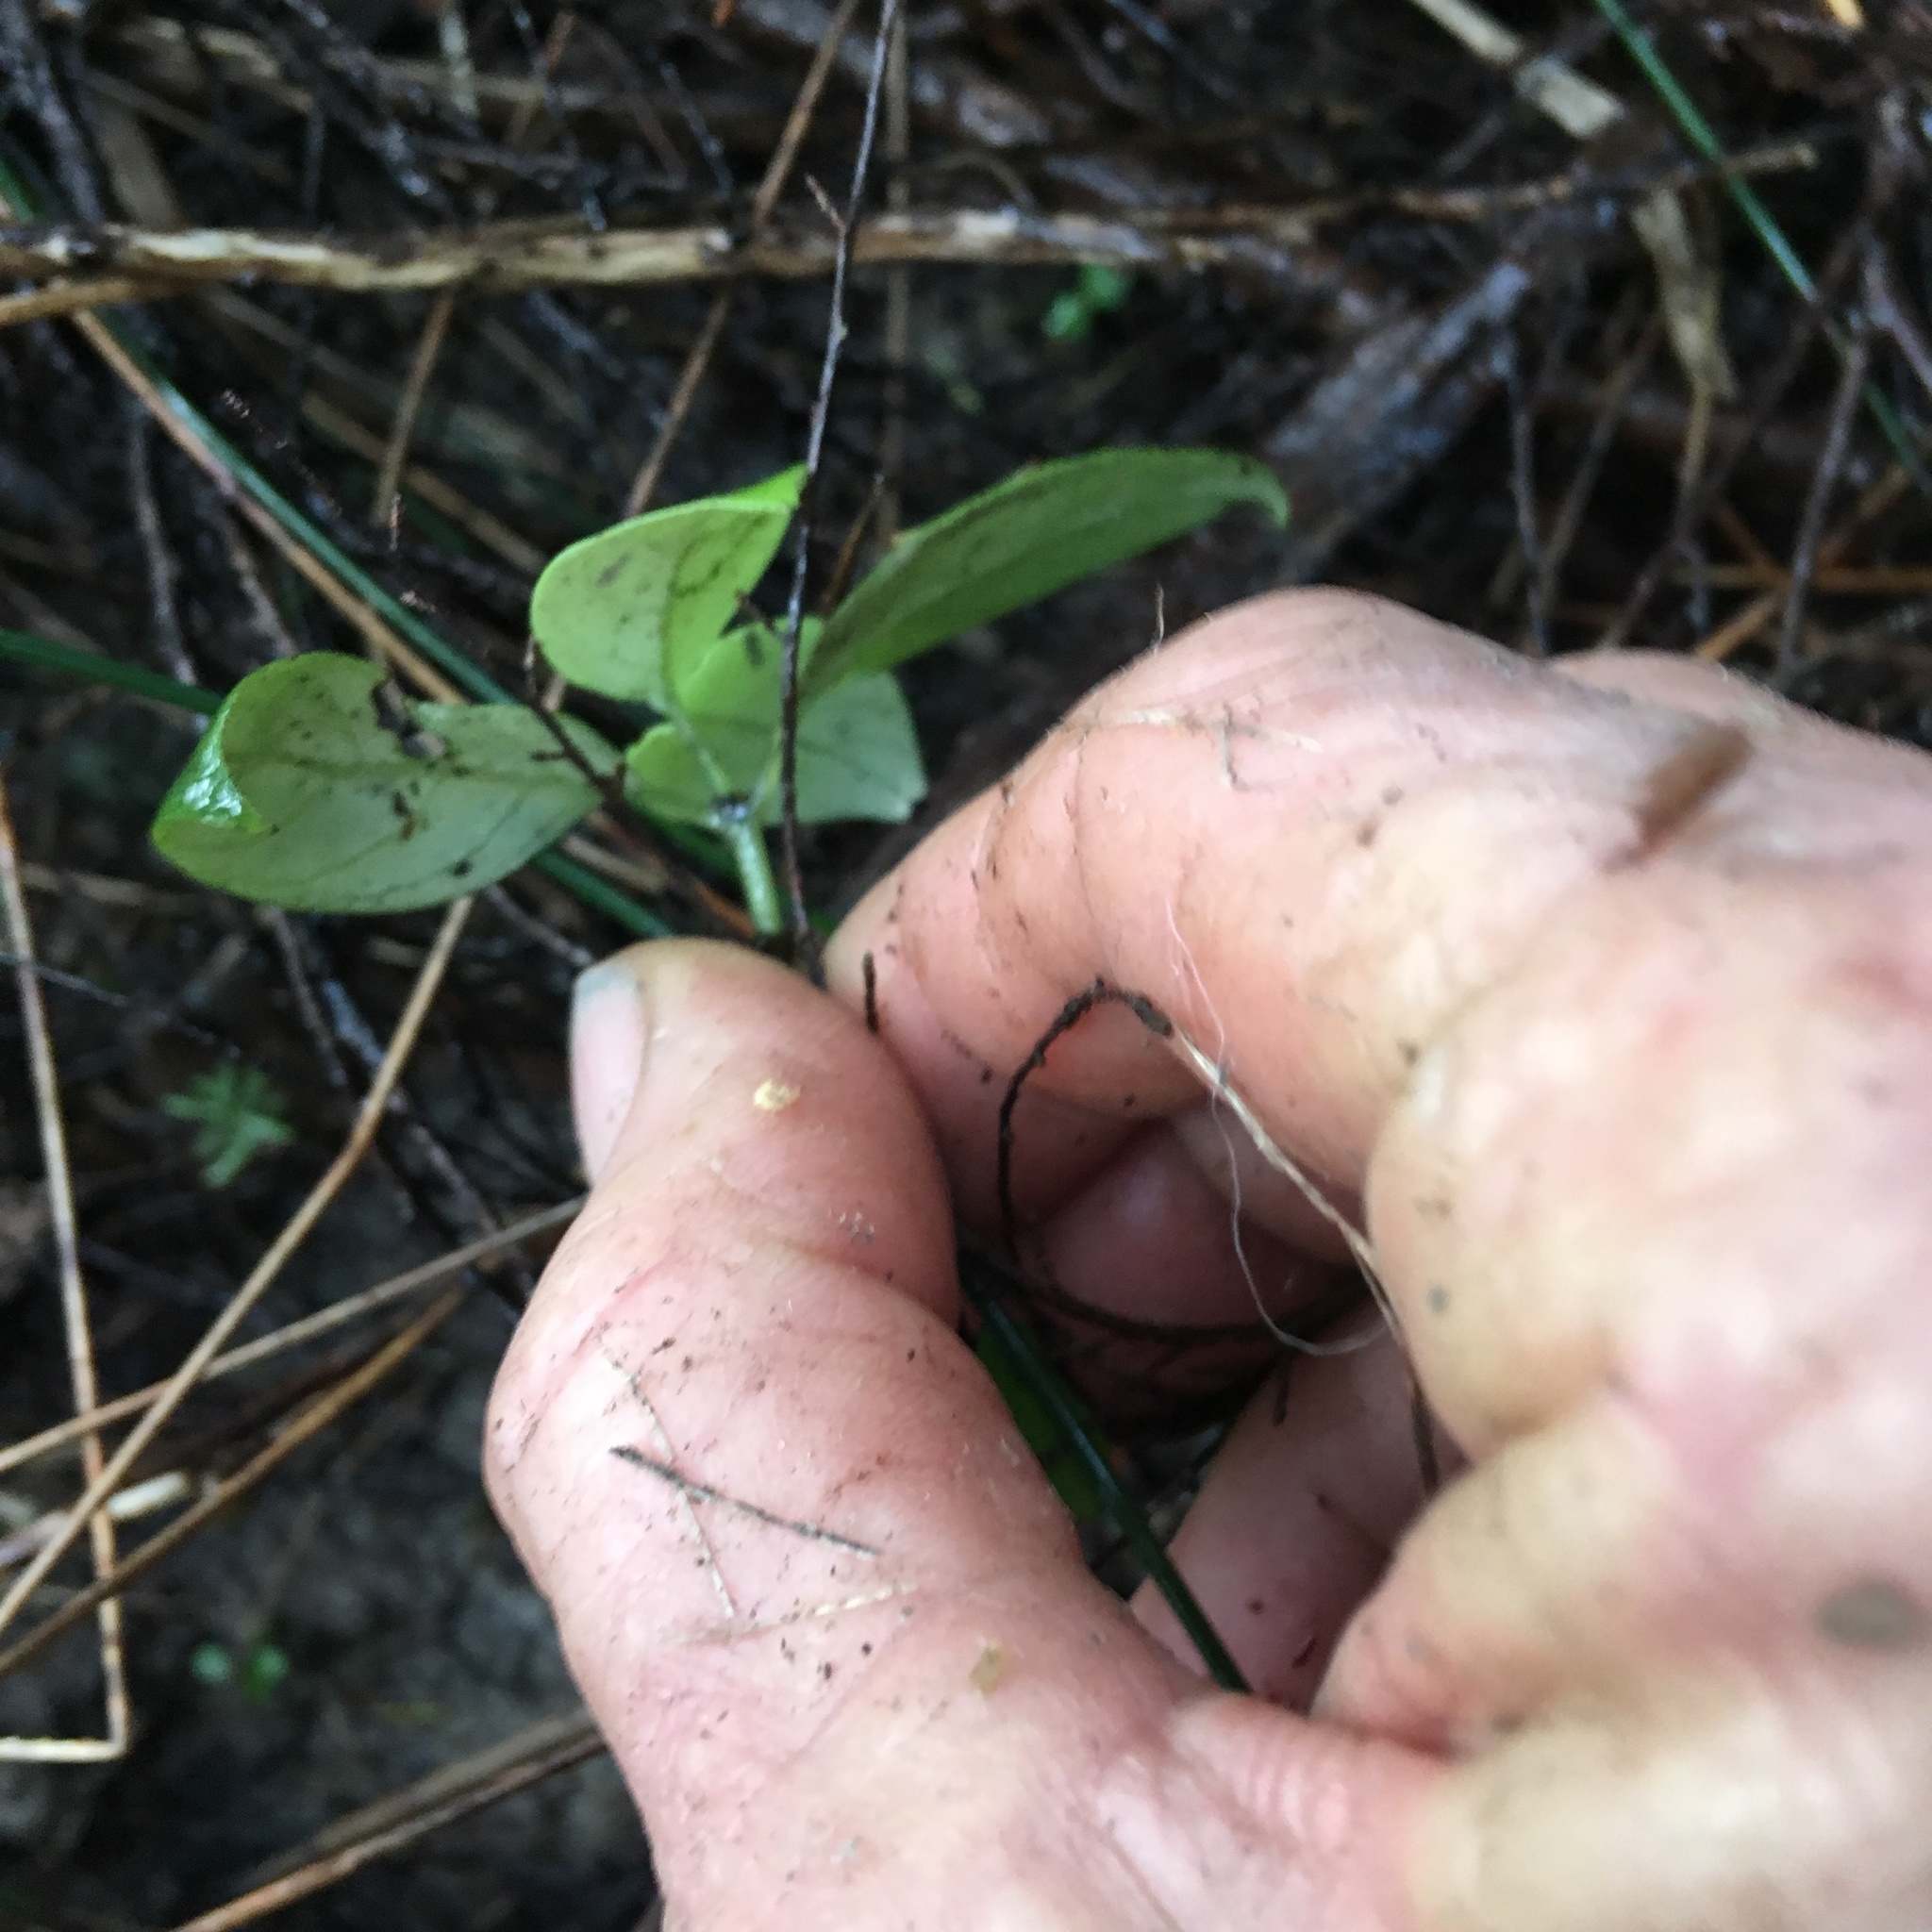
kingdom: Plantae
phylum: Tracheophyta
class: Magnoliopsida
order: Gentianales
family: Loganiaceae
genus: Geniostoma
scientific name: Geniostoma ligustrifolium
